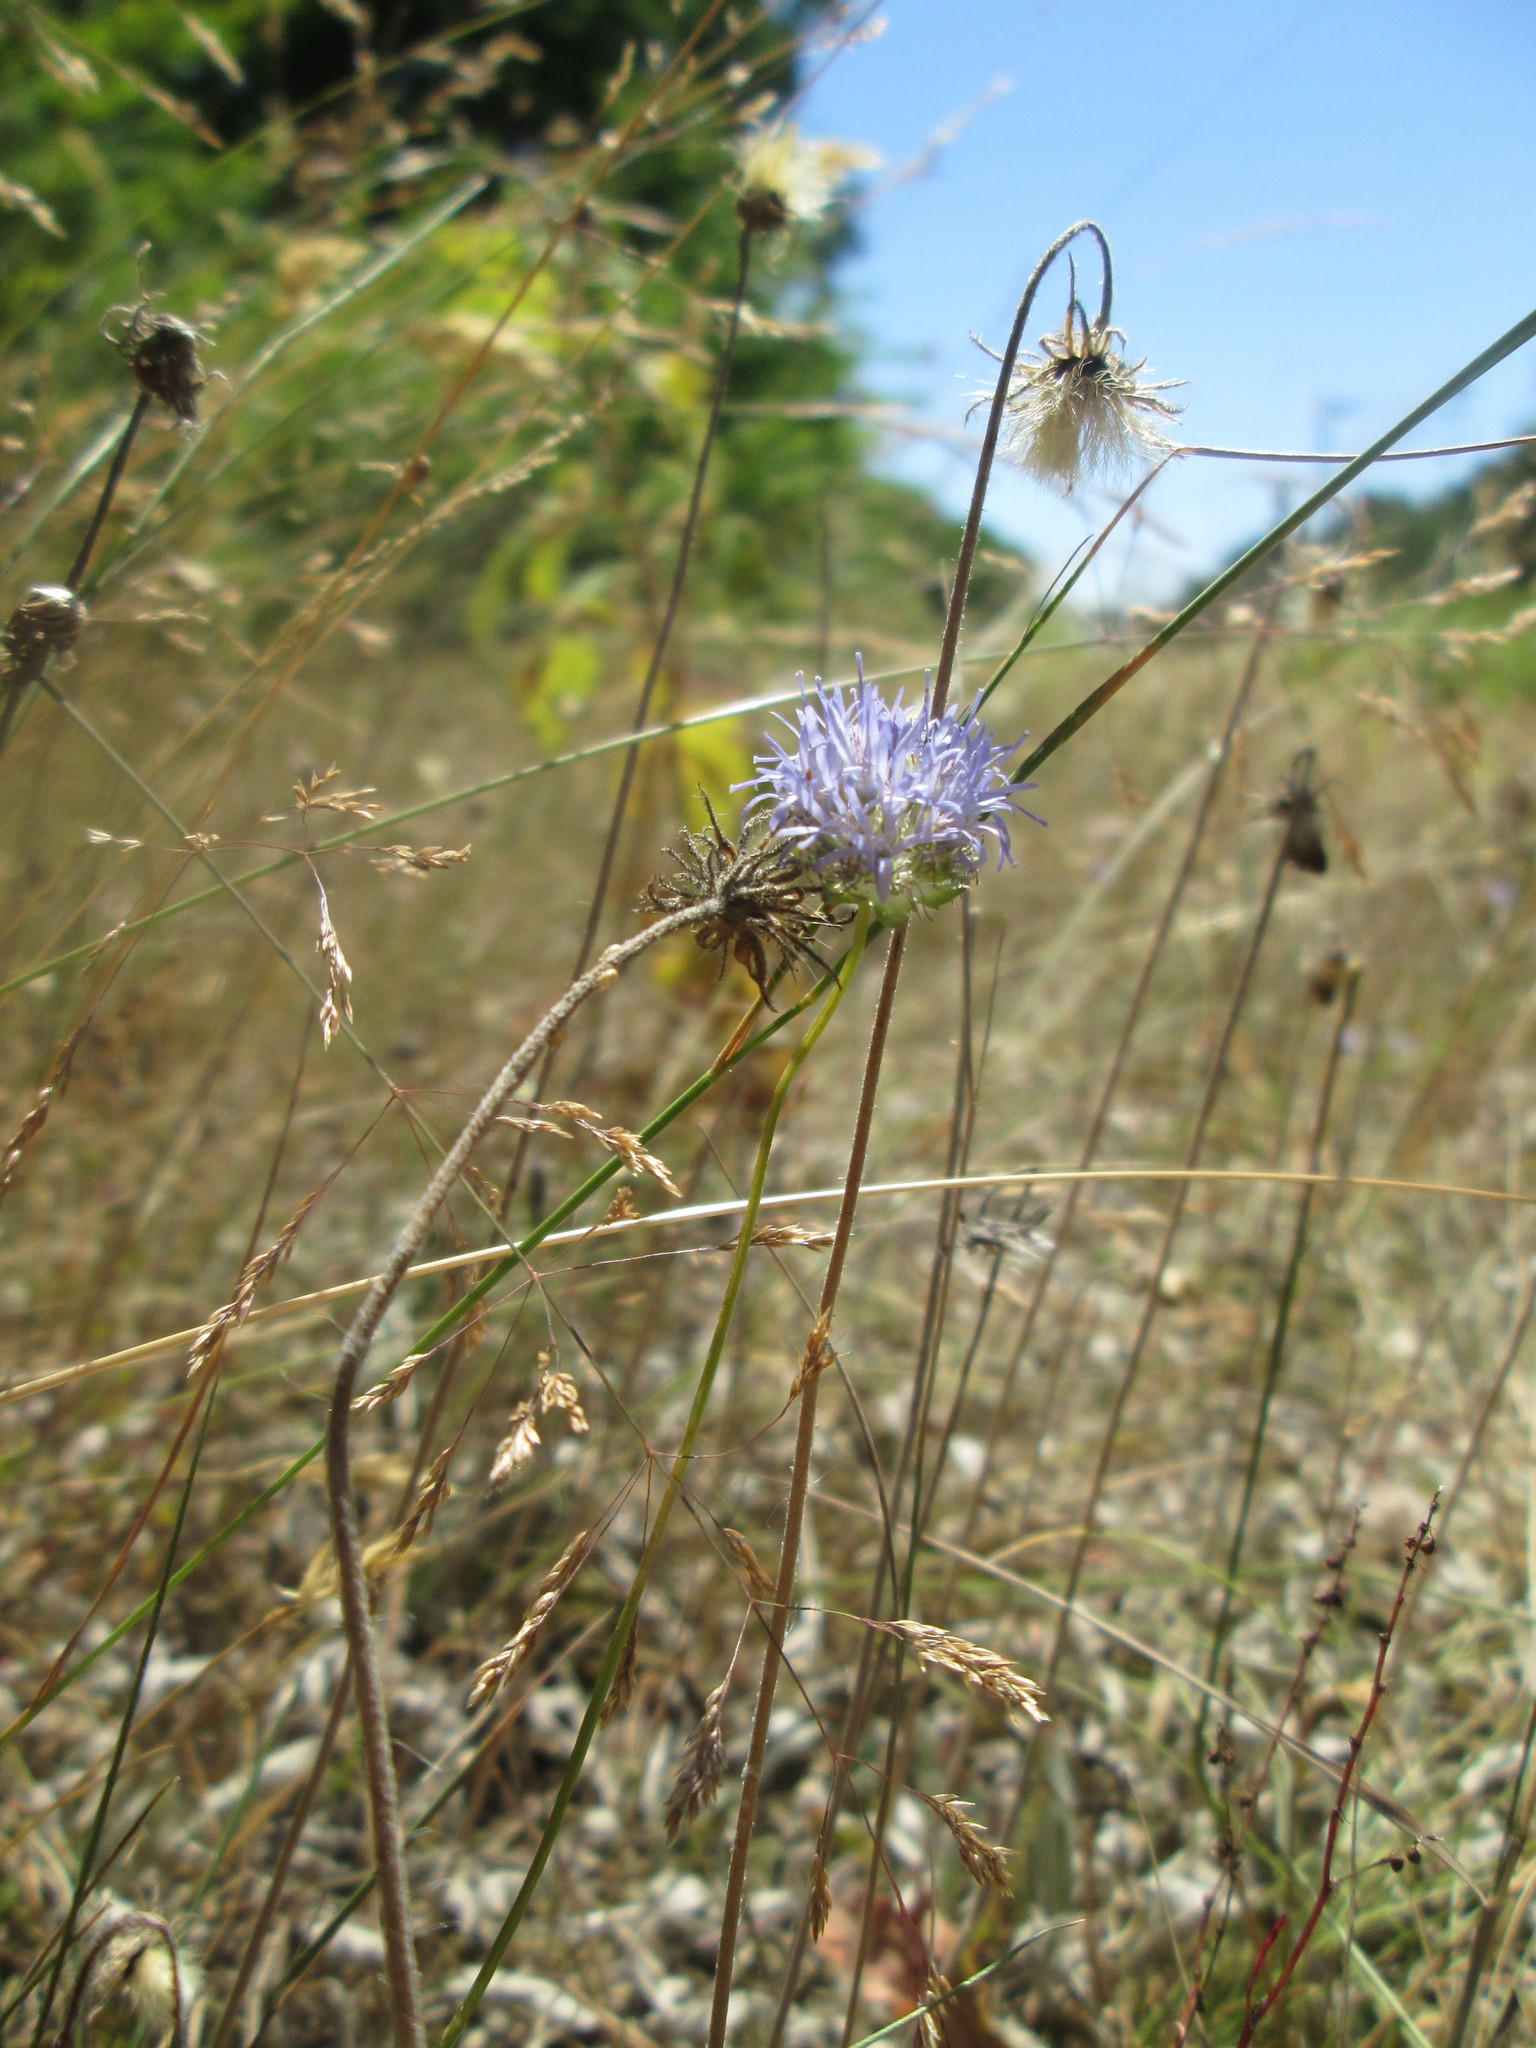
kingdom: Plantae
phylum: Tracheophyta
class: Magnoliopsida
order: Asterales
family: Campanulaceae
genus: Jasione
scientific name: Jasione montana
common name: Sheep's-bit
